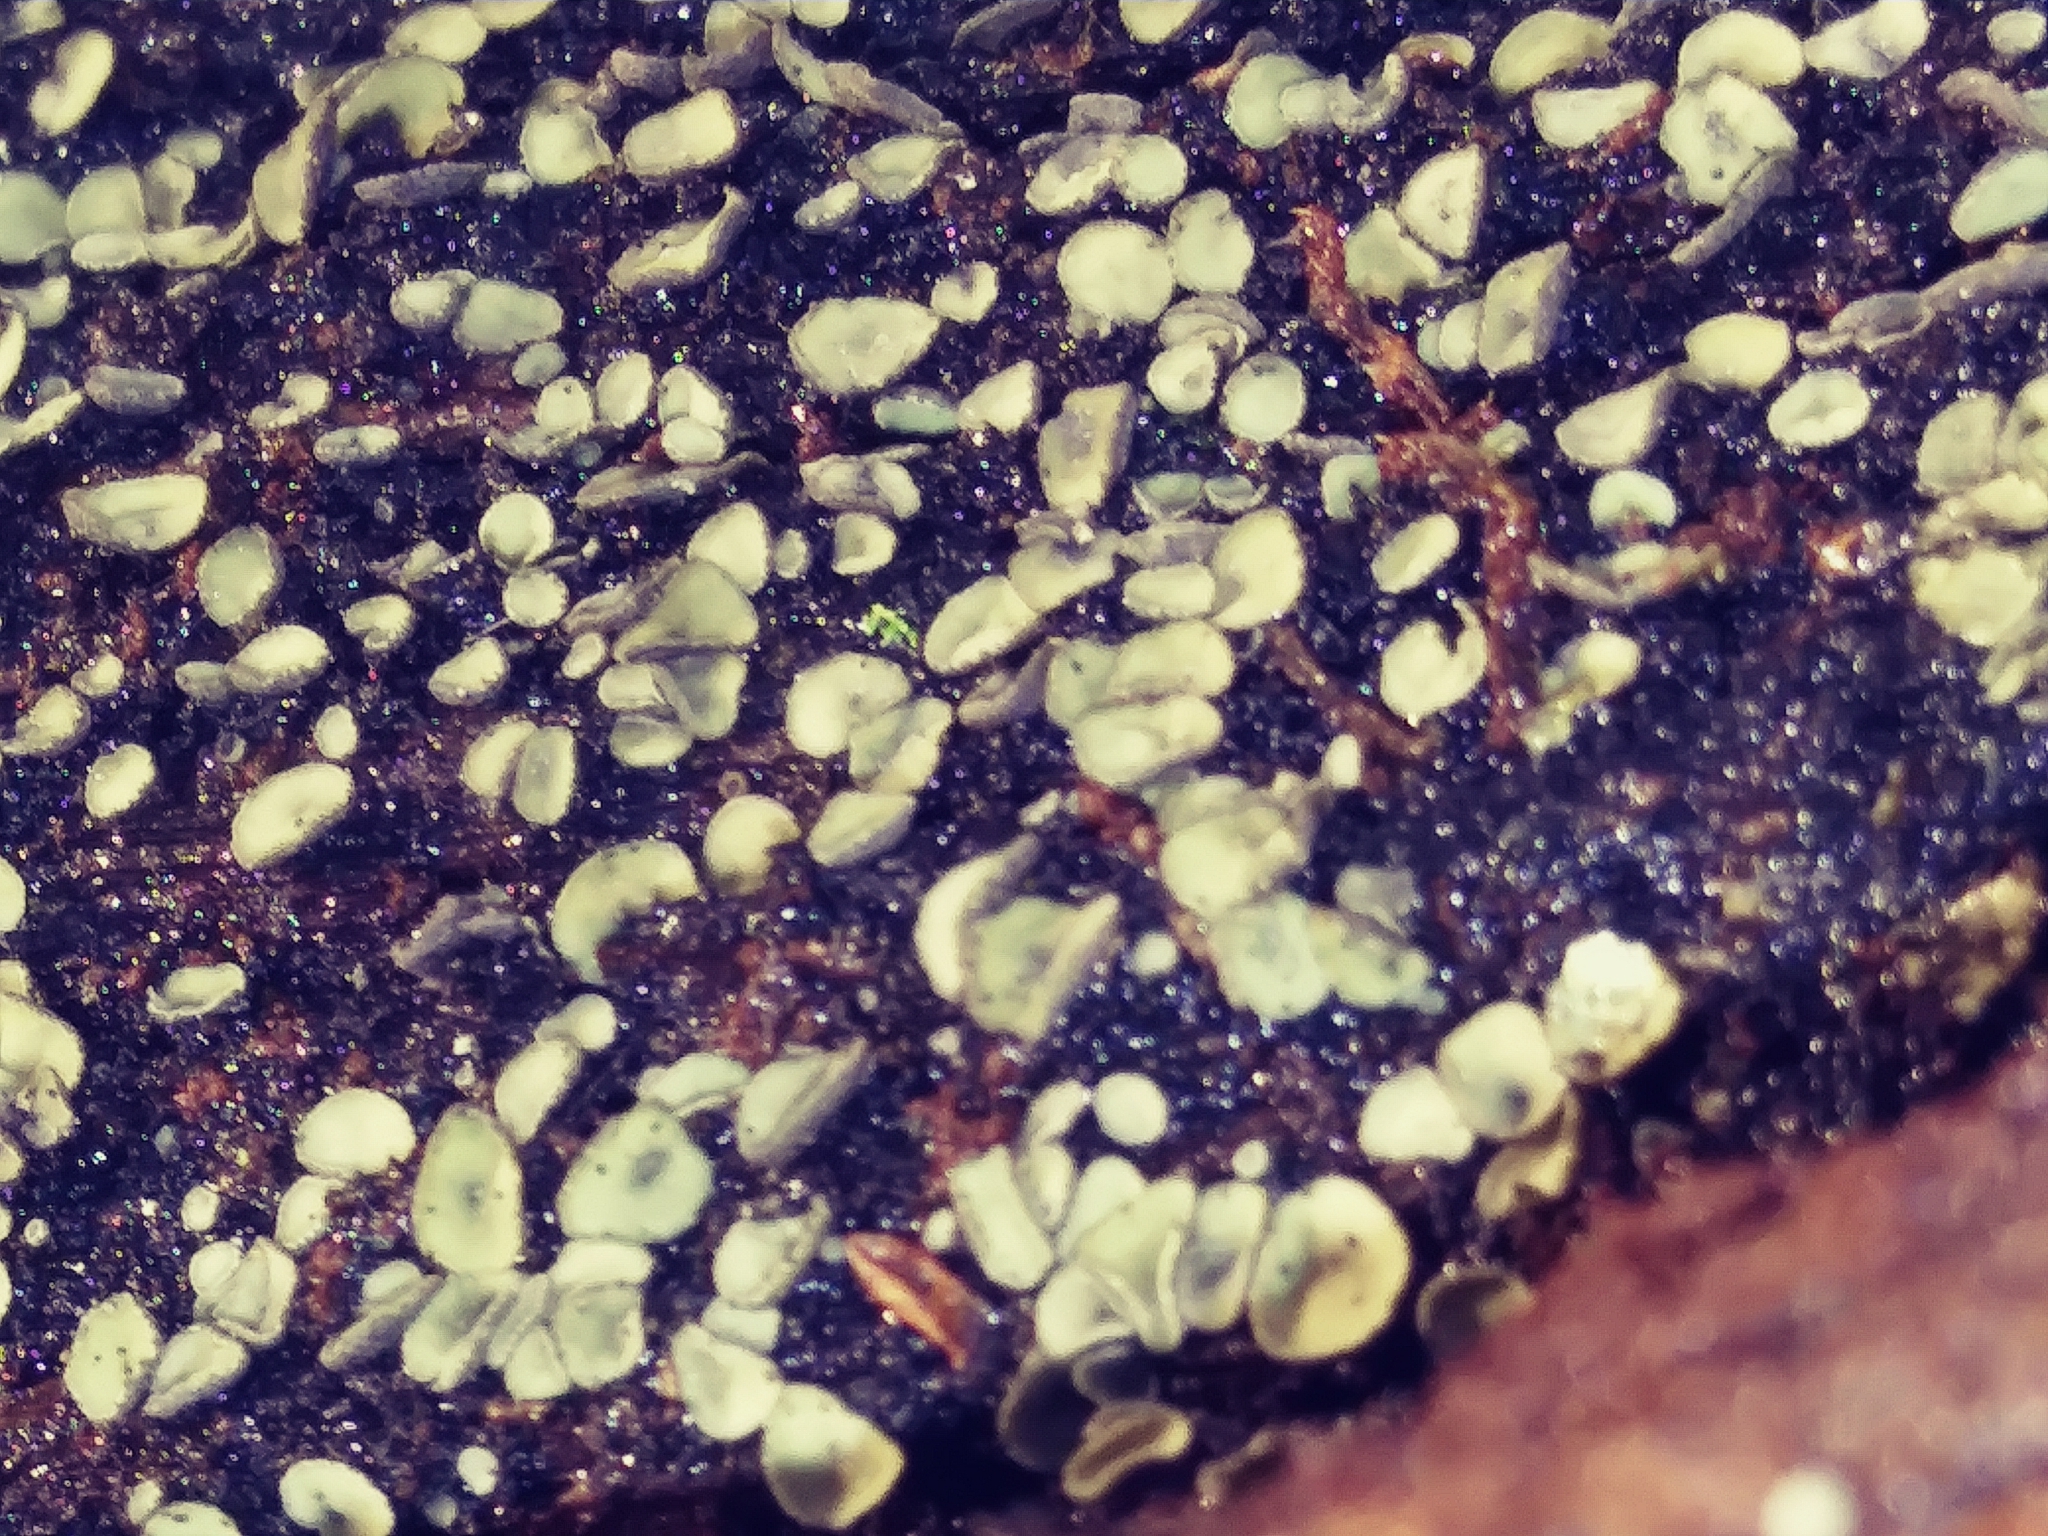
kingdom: Fungi
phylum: Ascomycota
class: Leotiomycetes
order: Helotiales
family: Chlorospleniaceae
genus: Chlorosplenium
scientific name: Chlorosplenium chlora
